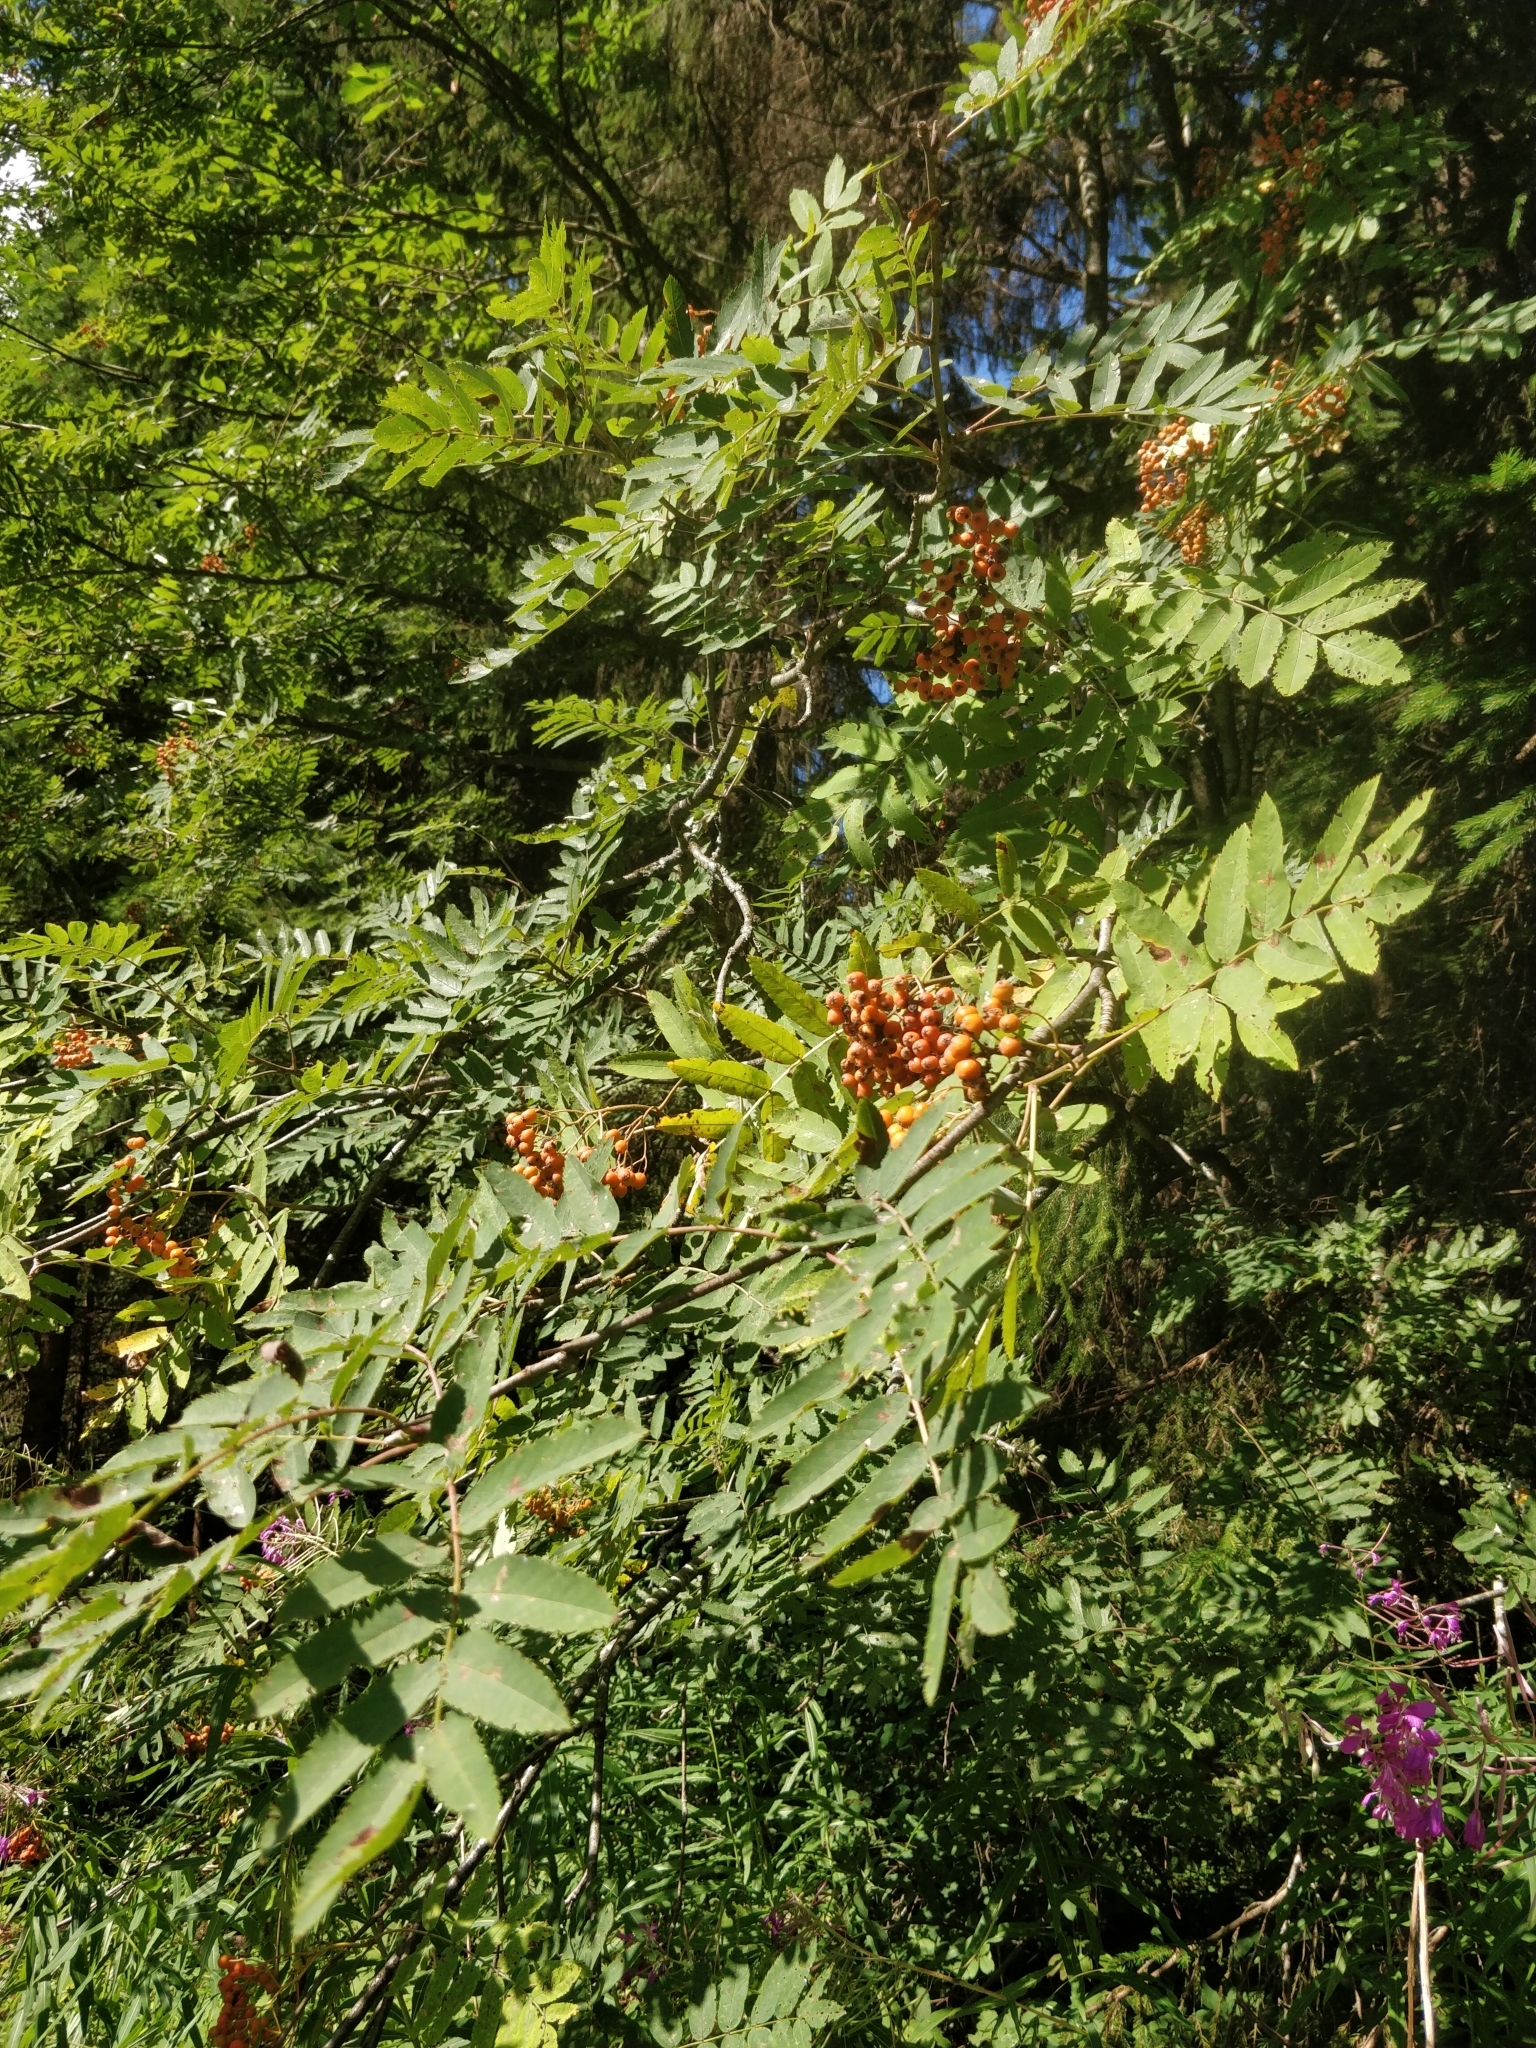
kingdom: Plantae
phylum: Tracheophyta
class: Magnoliopsida
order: Rosales
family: Rosaceae
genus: Sorbus
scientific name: Sorbus aucuparia
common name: Rowan
